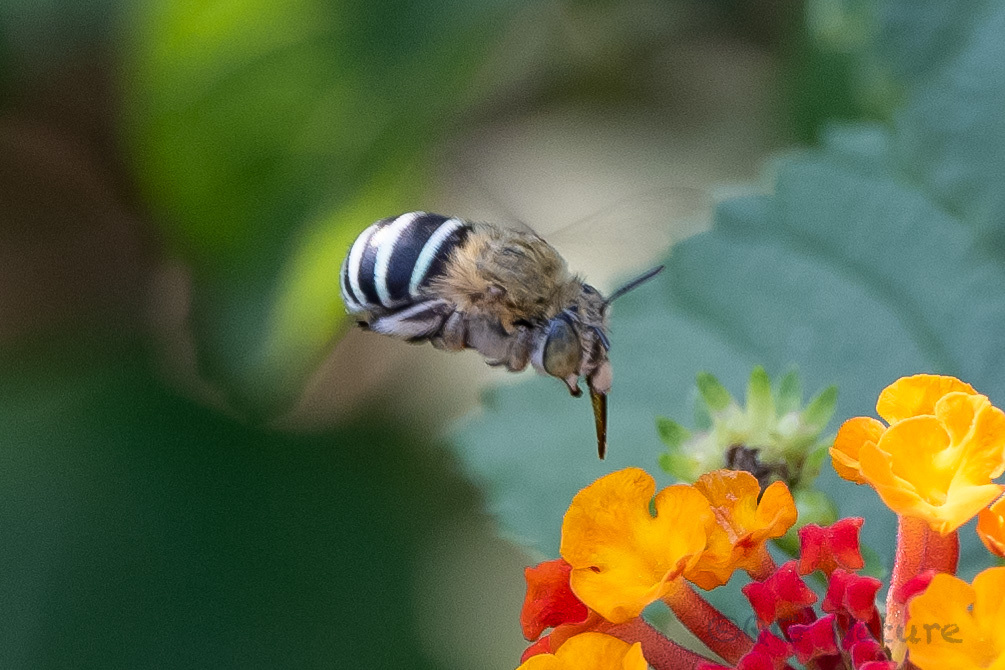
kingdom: Animalia
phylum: Arthropoda
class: Insecta
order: Hymenoptera
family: Apidae
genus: Amegilla
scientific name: Amegilla calceifera
